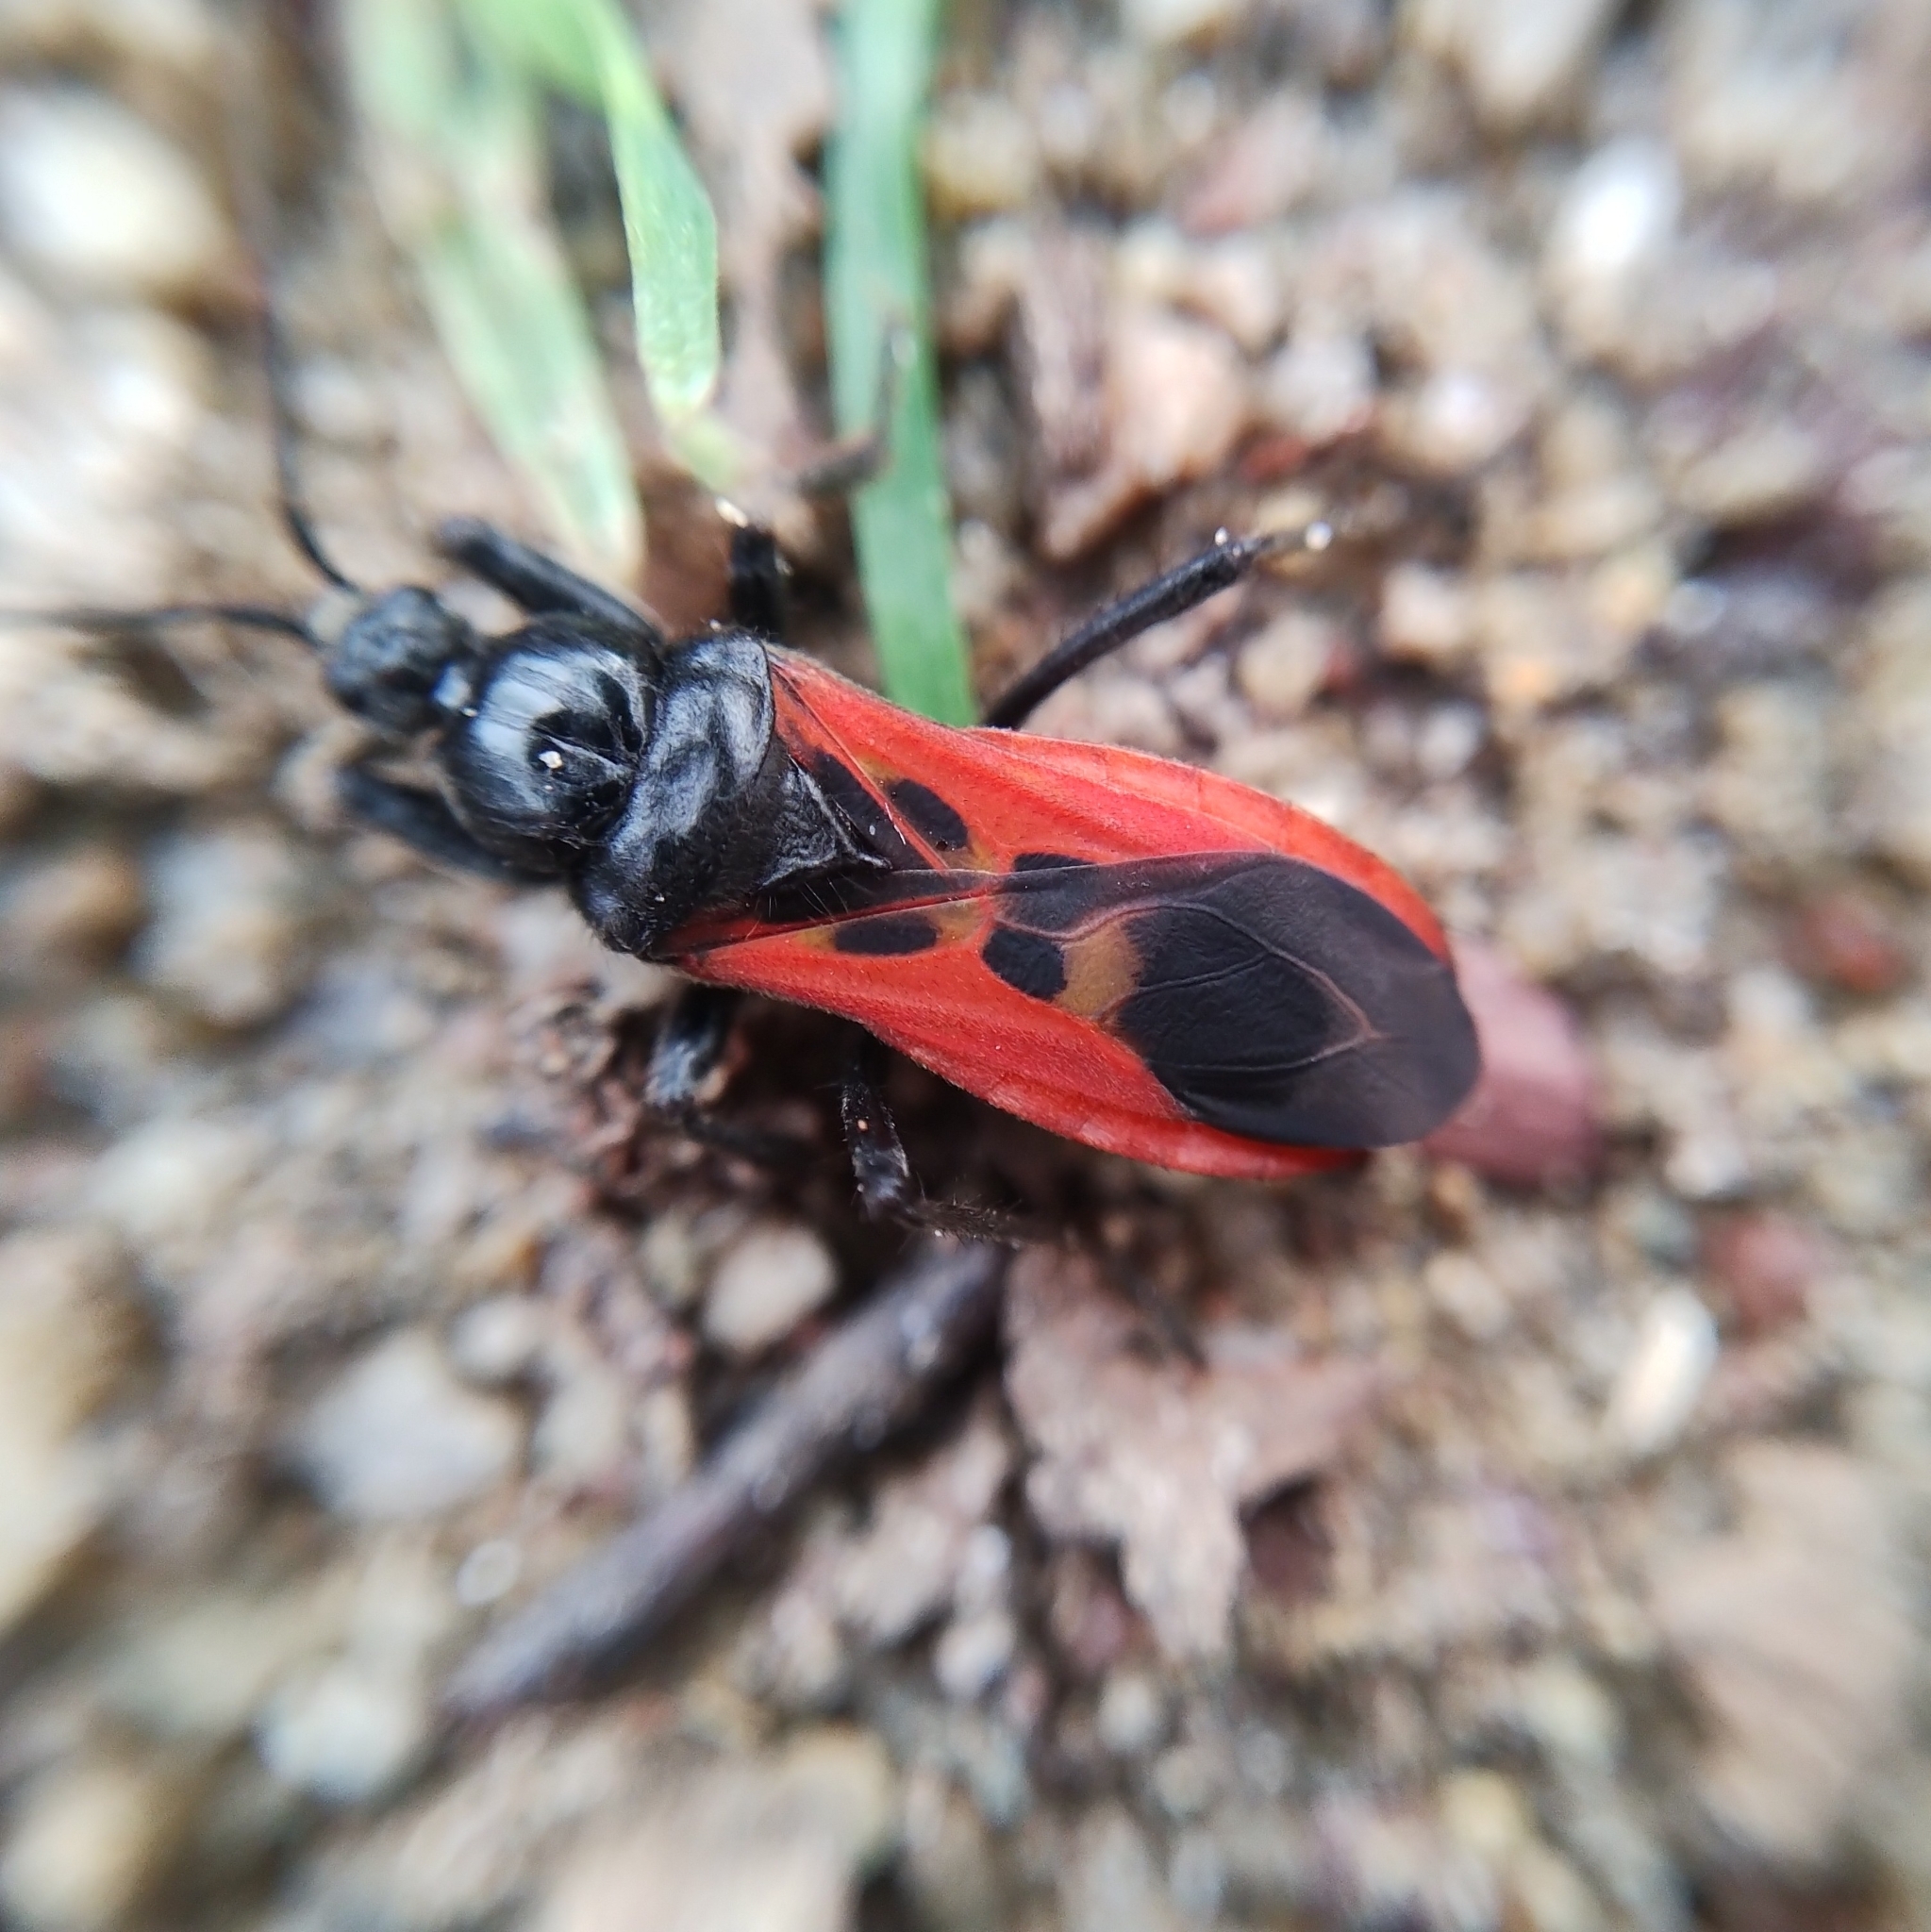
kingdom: Animalia
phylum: Arthropoda
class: Insecta
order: Hemiptera
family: Reduviidae
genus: Peirates
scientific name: Peirates hybridus
